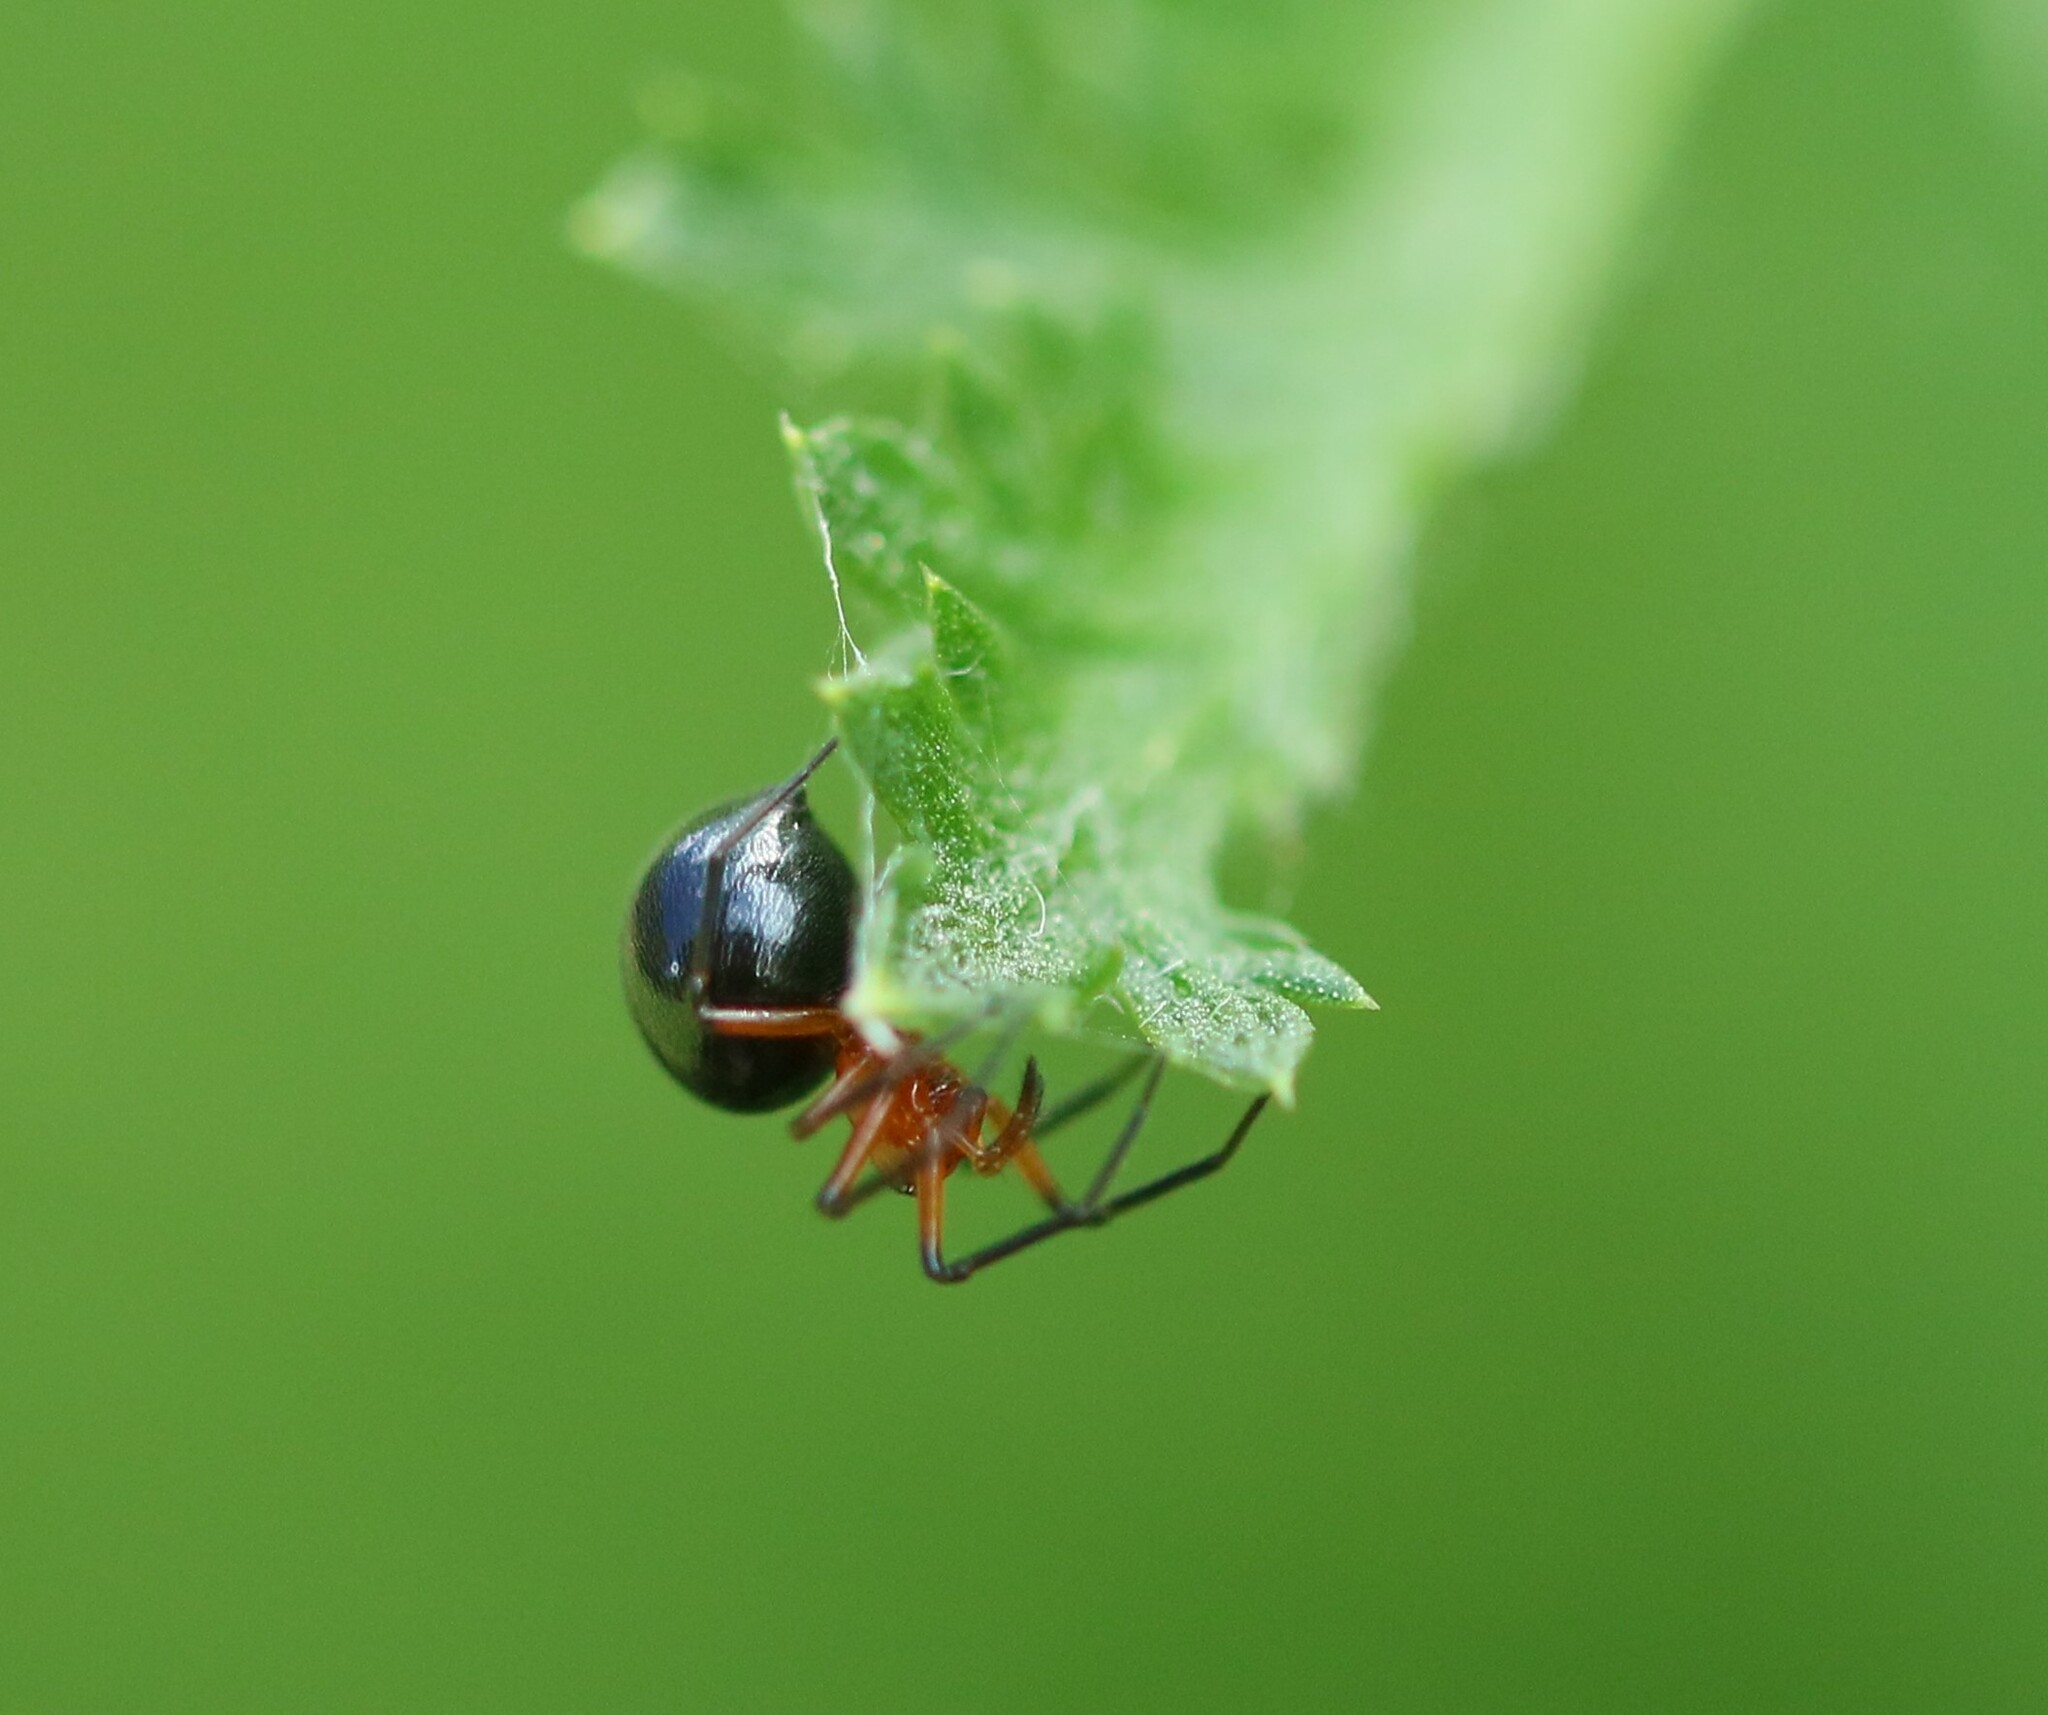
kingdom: Animalia
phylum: Arthropoda
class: Arachnida
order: Araneae
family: Linyphiidae
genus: Hypselistes
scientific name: Hypselistes florens
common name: Peatland sheetweb weaver
